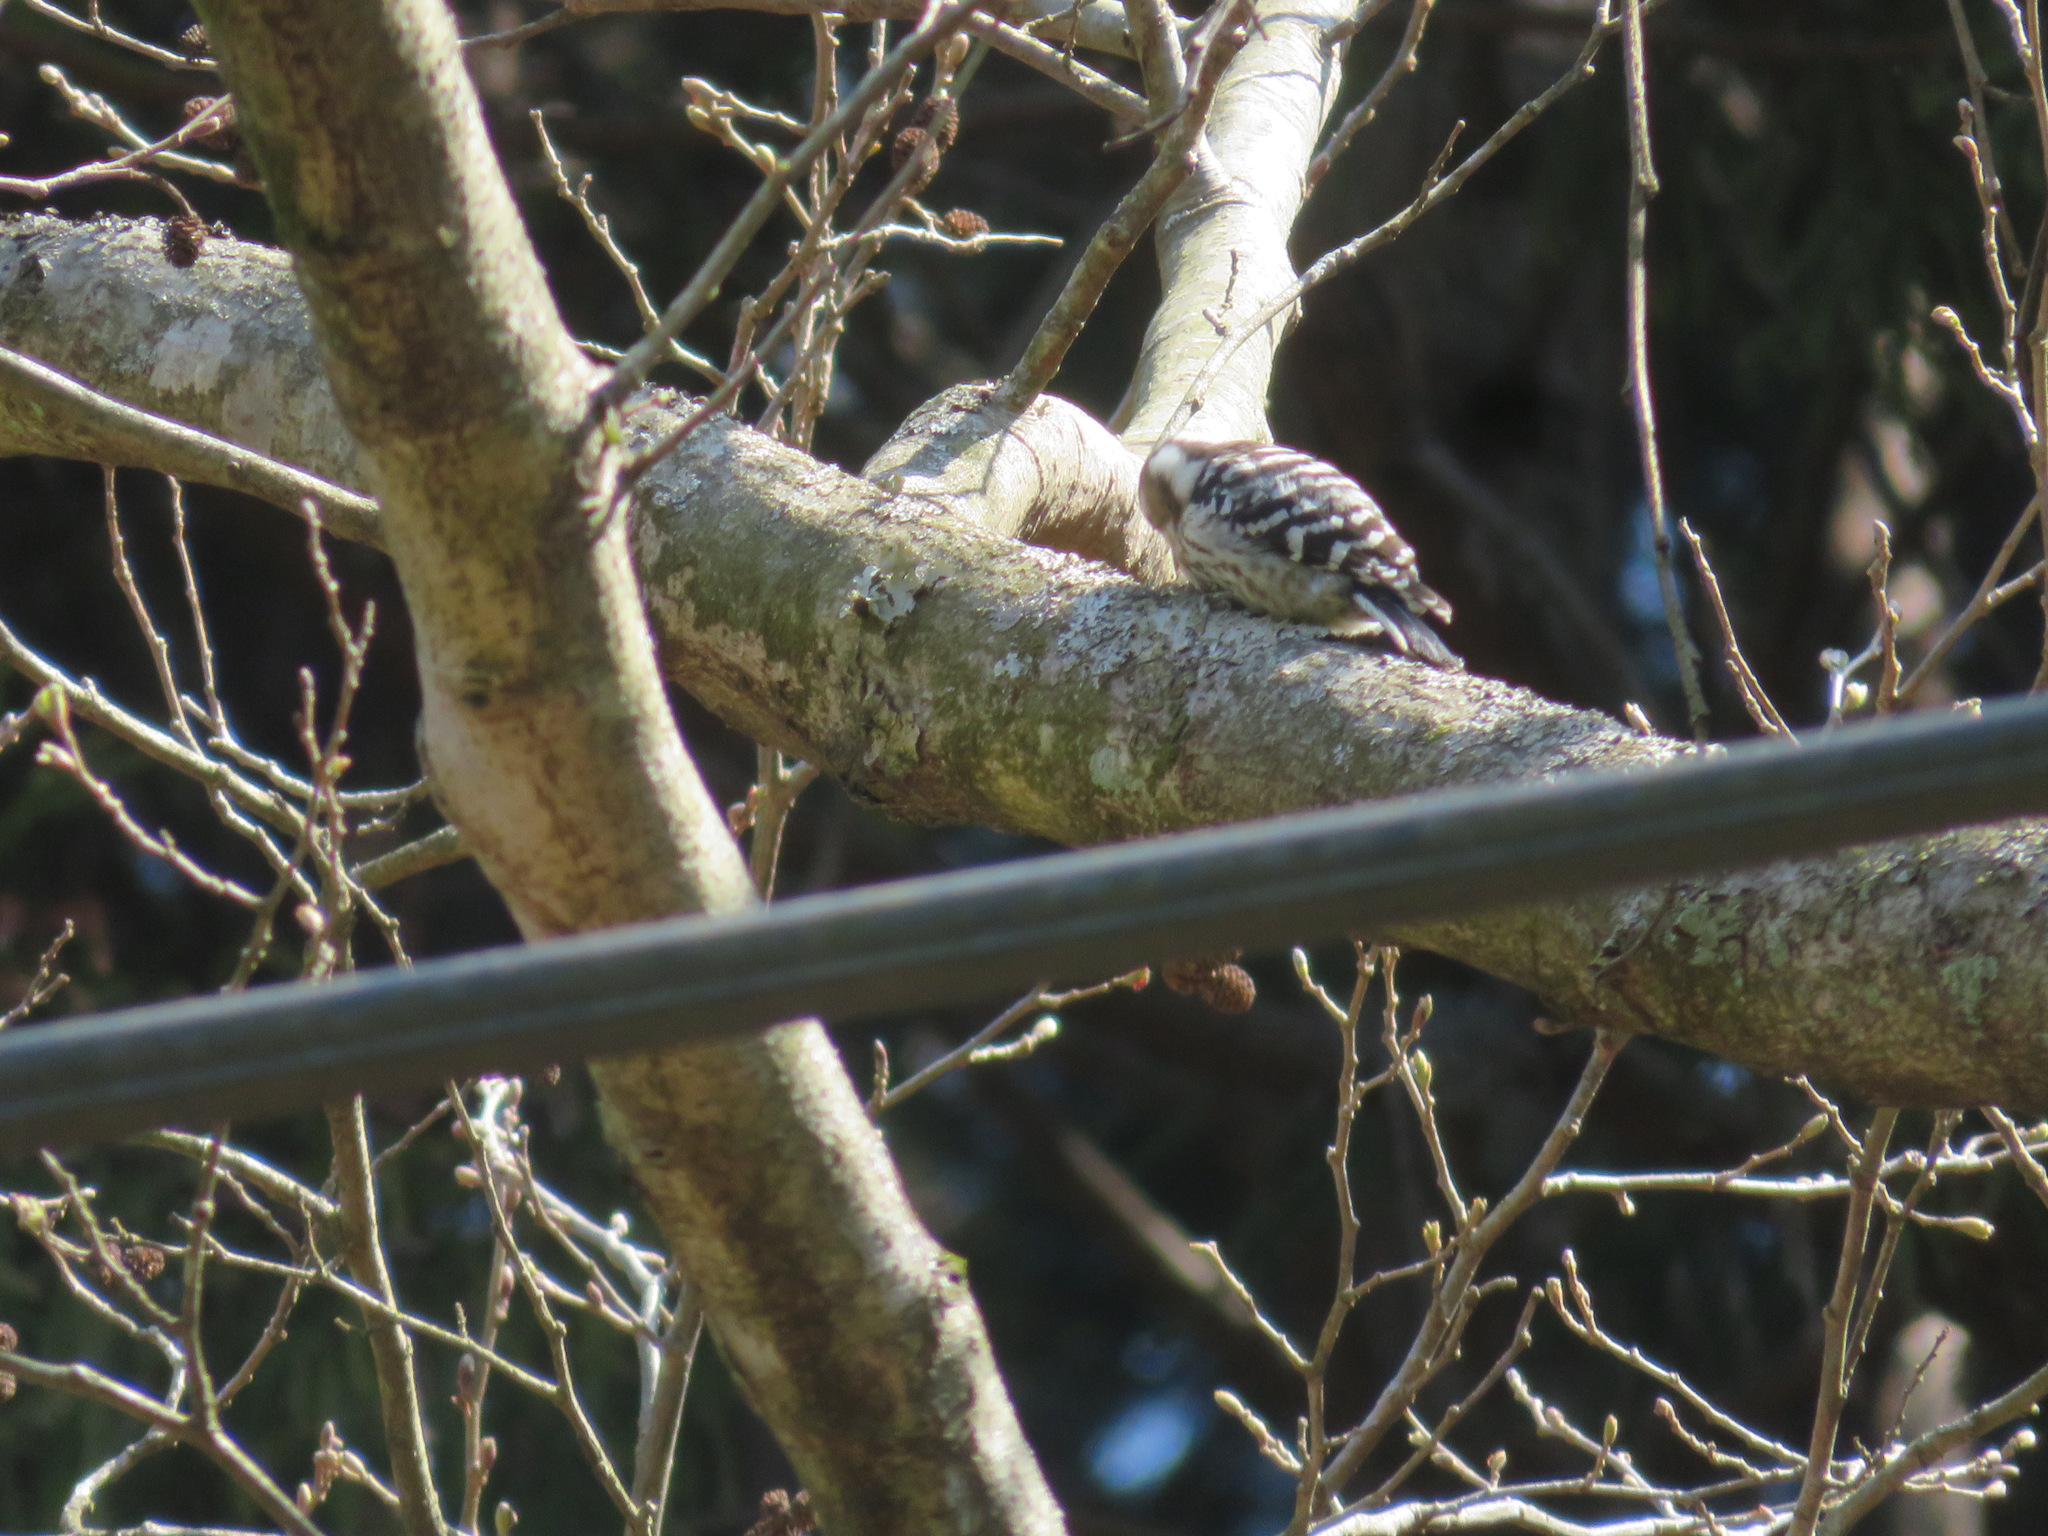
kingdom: Animalia
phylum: Chordata
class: Aves
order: Piciformes
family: Picidae
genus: Yungipicus
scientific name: Yungipicus kizuki
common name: Japanese pygmy woodpecker
